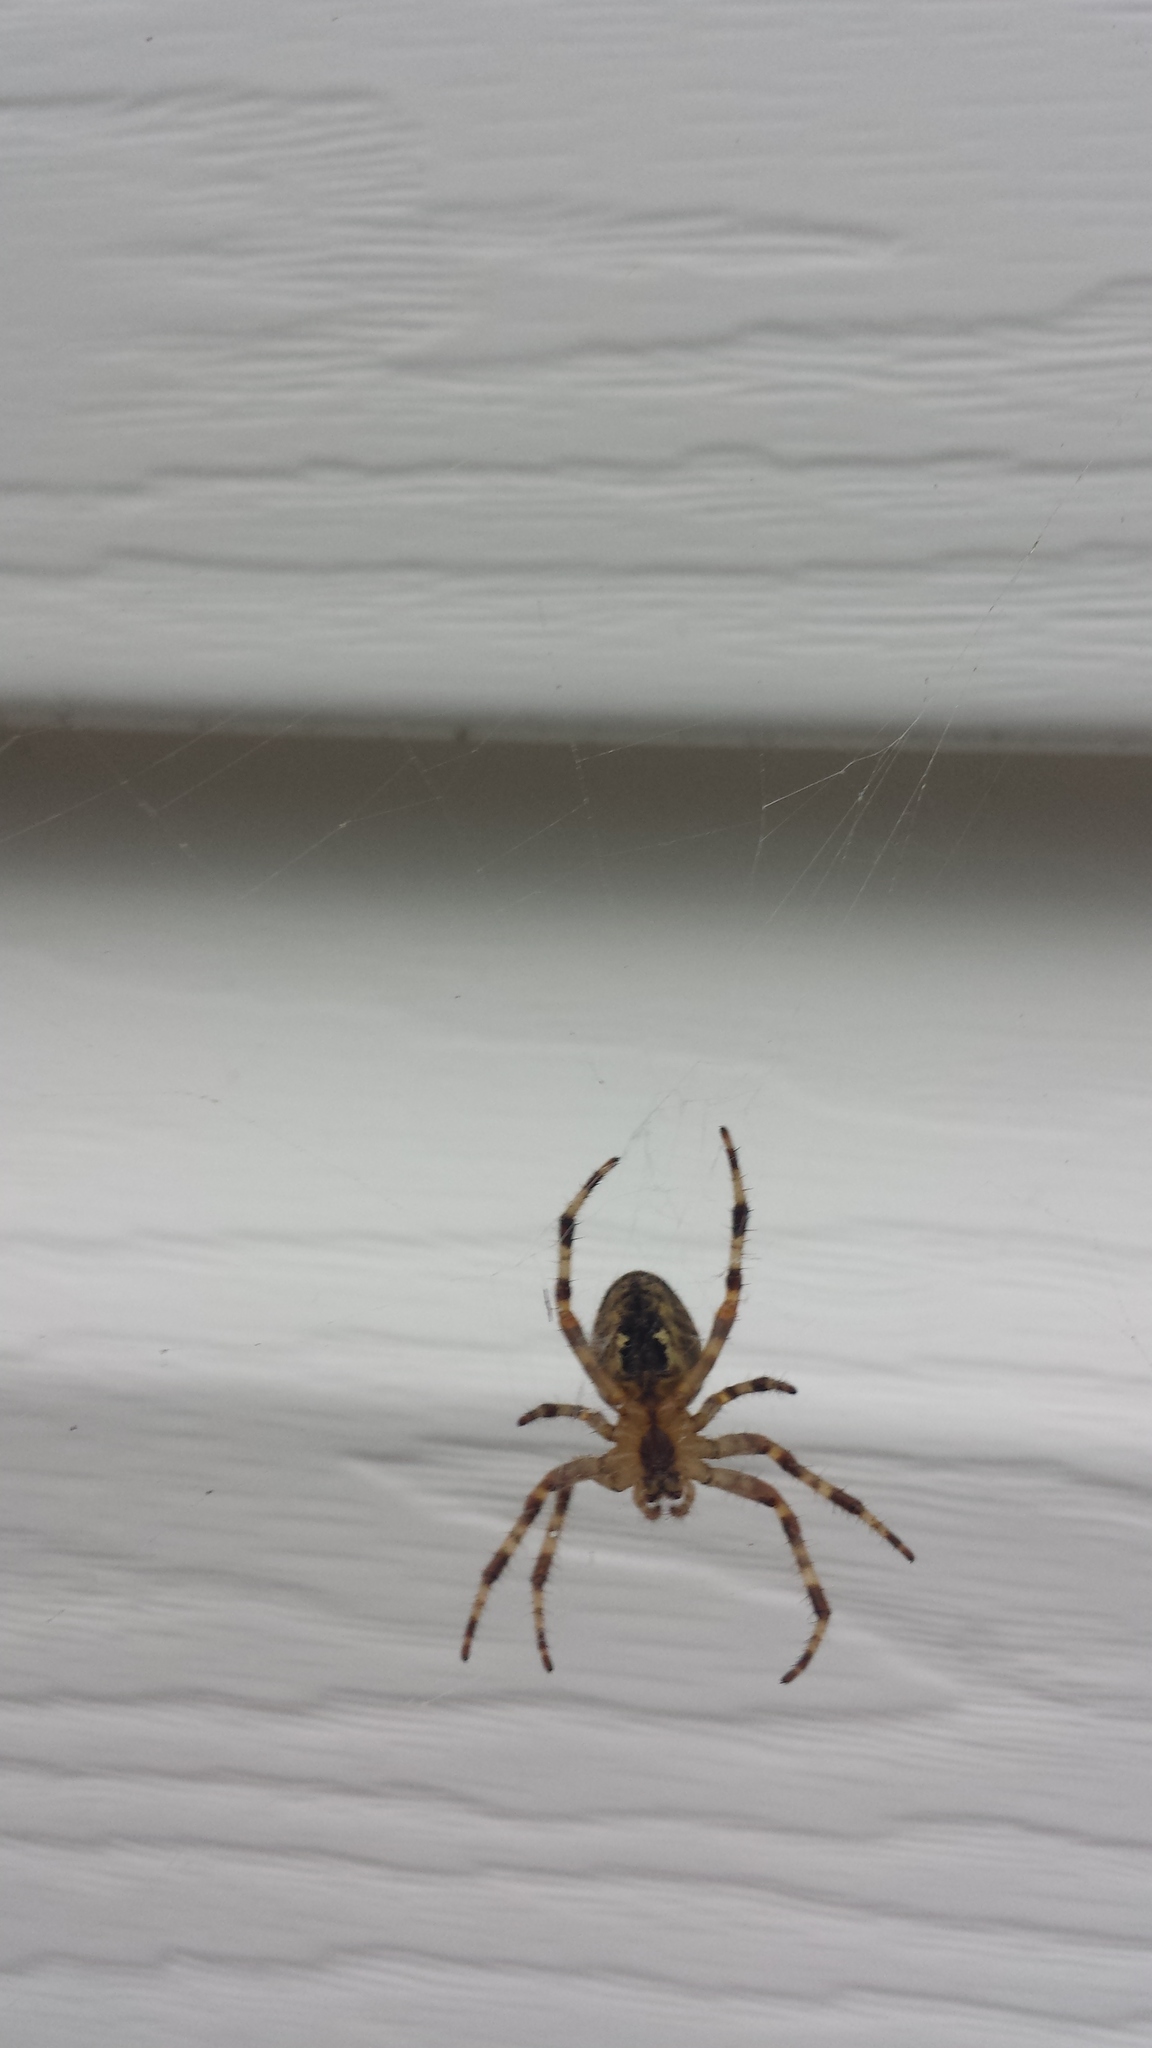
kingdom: Animalia
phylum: Arthropoda
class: Arachnida
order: Araneae
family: Araneidae
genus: Araneus
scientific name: Araneus diadematus
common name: Cross orbweaver
